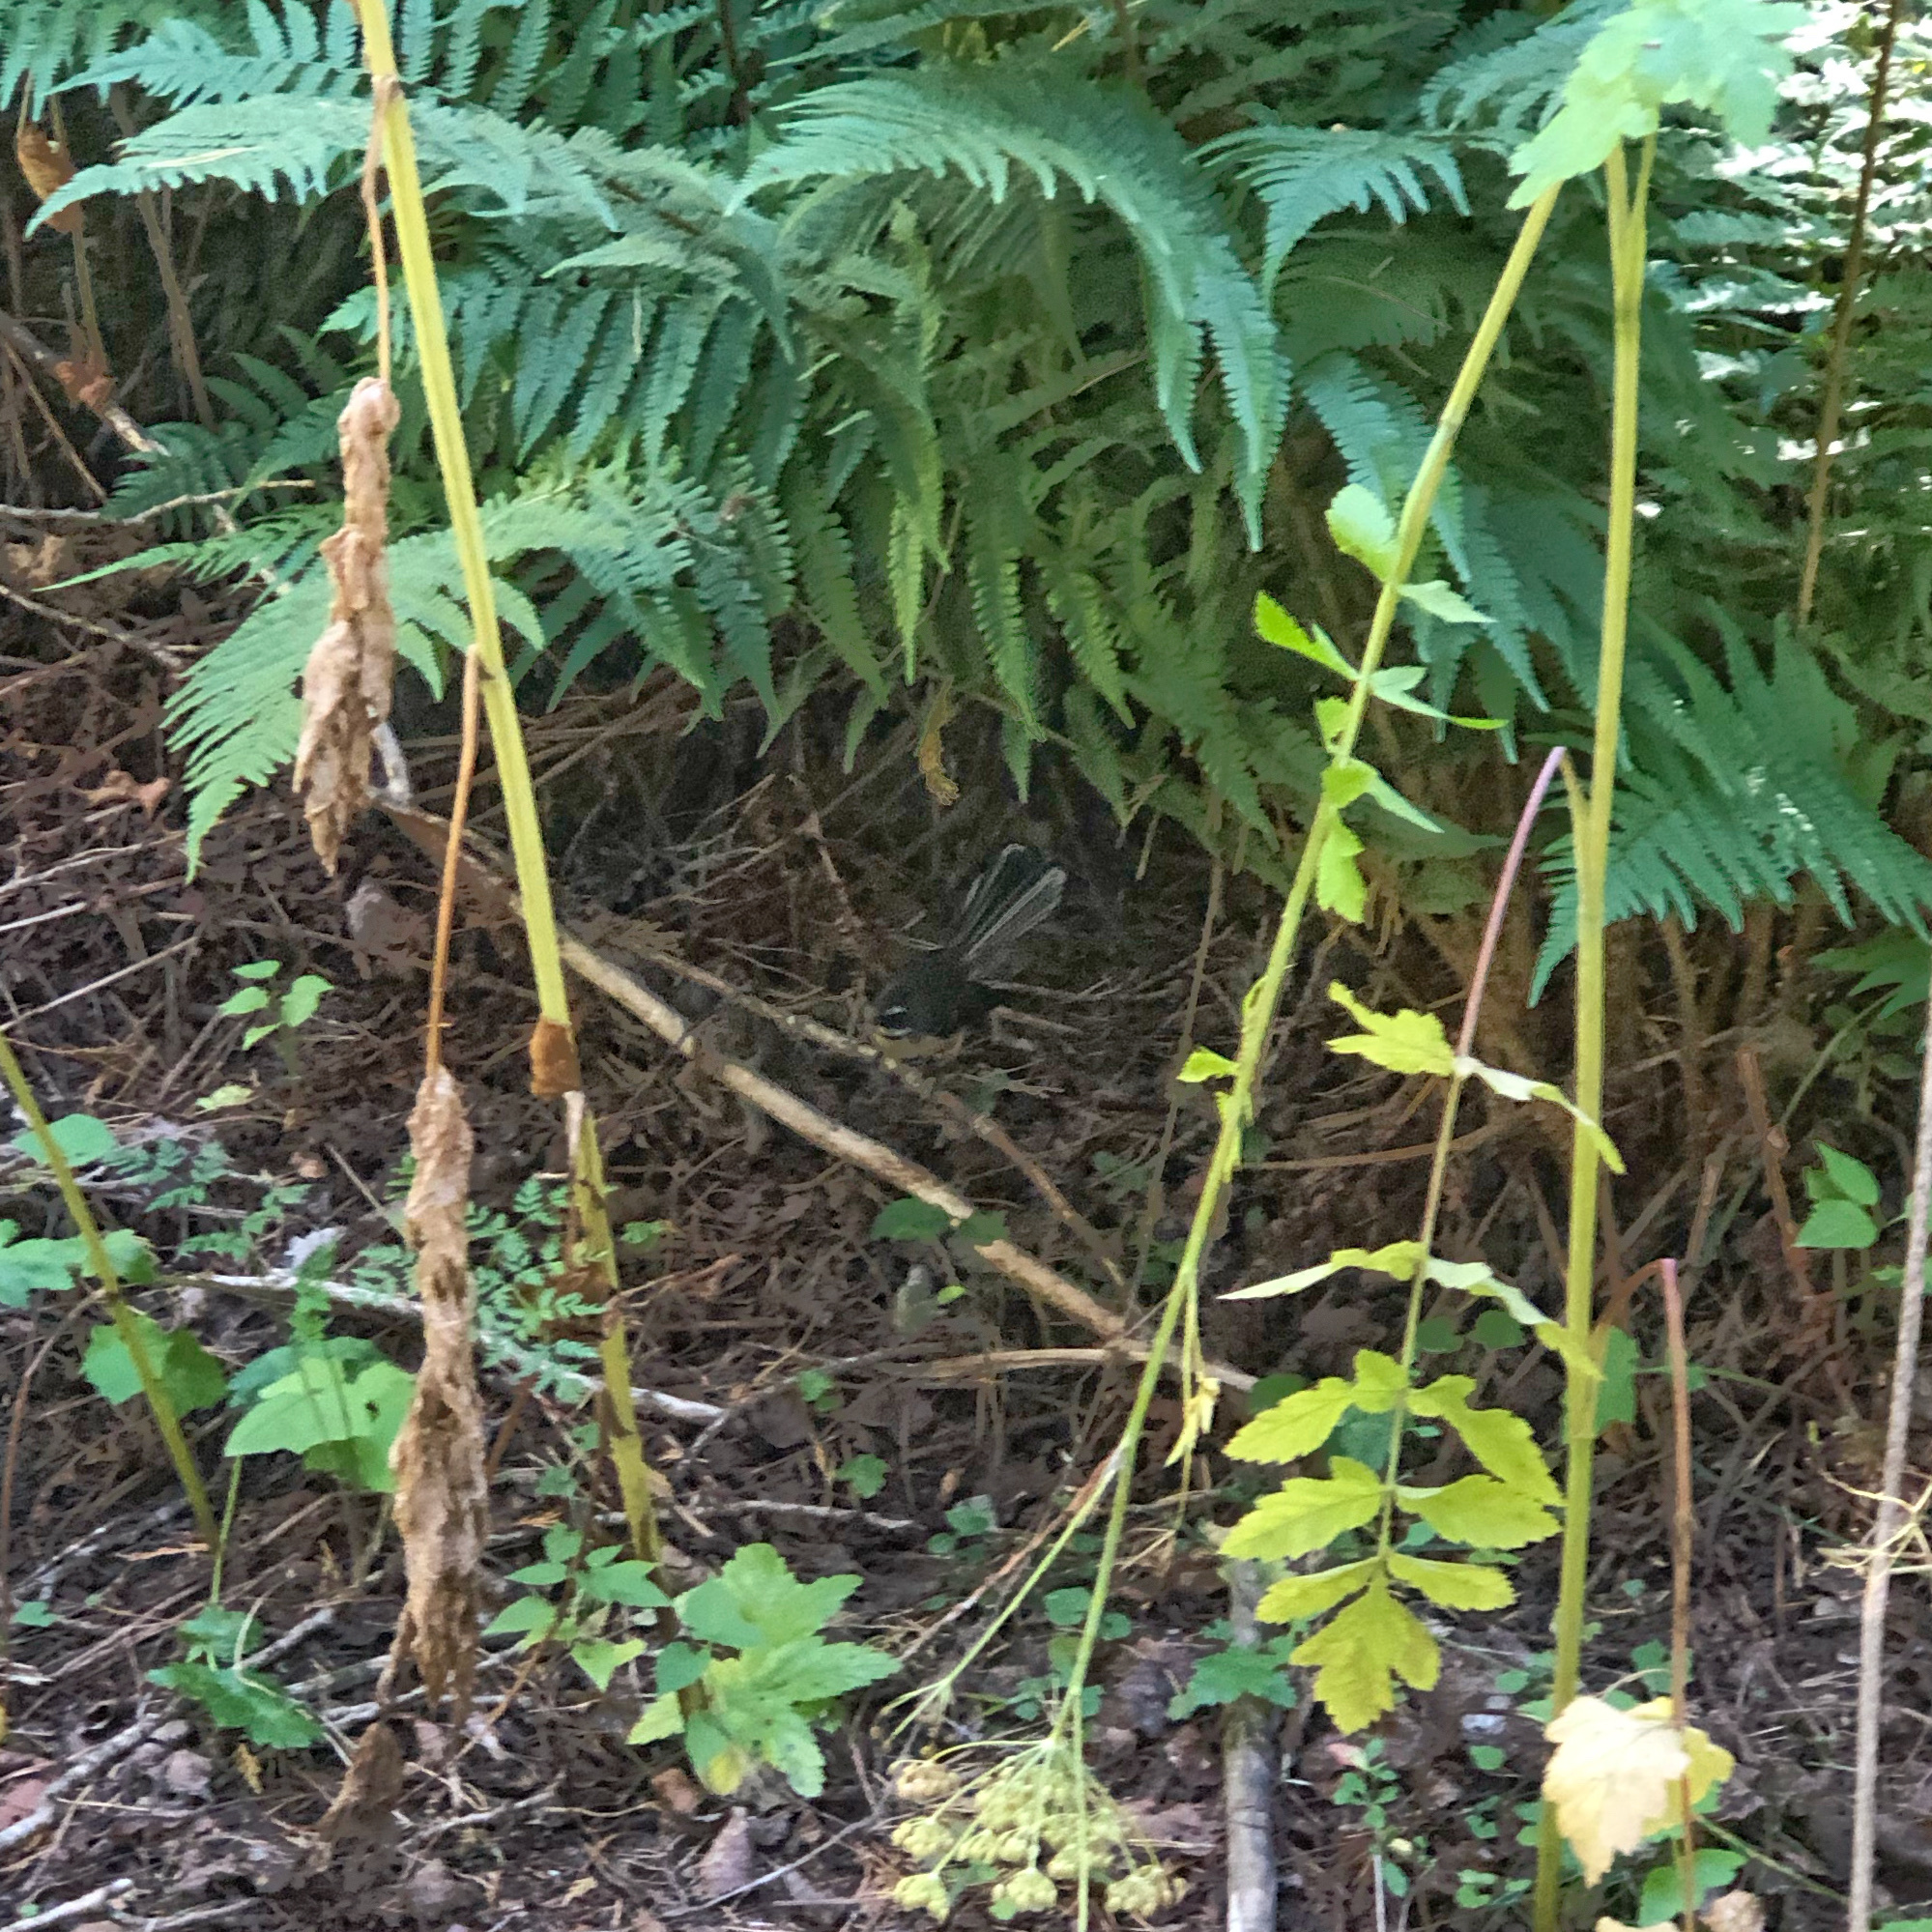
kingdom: Animalia
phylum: Chordata
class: Aves
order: Passeriformes
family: Rhipiduridae
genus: Rhipidura
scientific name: Rhipidura fuliginosa
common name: New zealand fantail
